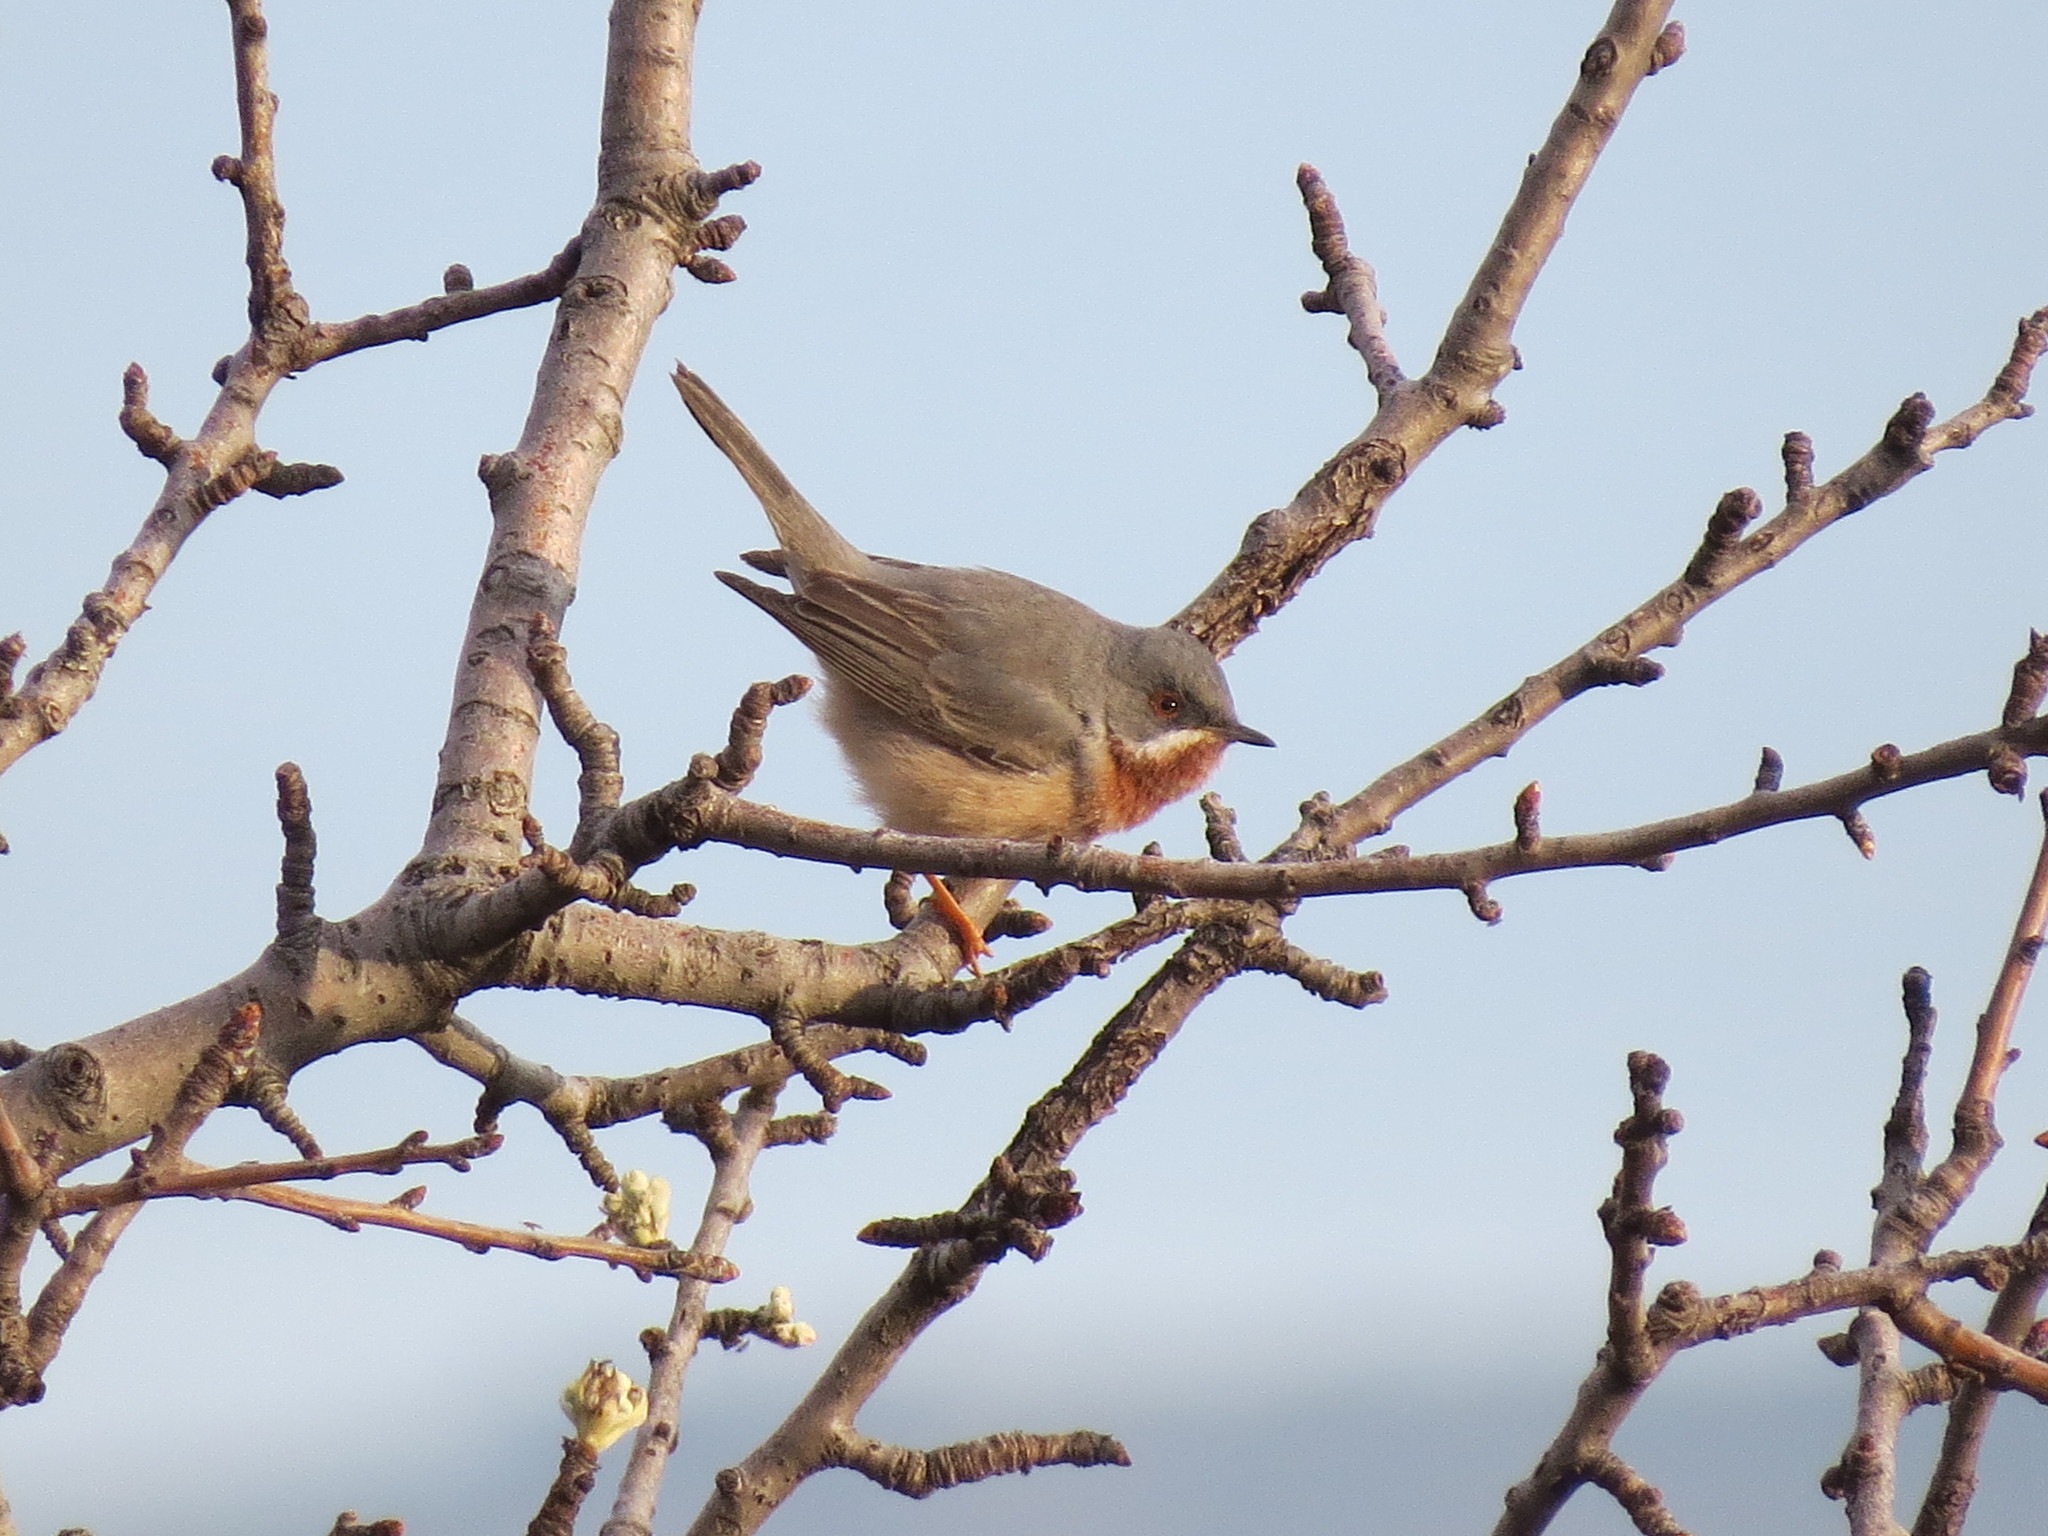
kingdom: Animalia
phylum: Chordata
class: Aves
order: Passeriformes
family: Sylviidae
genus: Curruca
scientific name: Curruca cantillans
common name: Subalpine warbler
